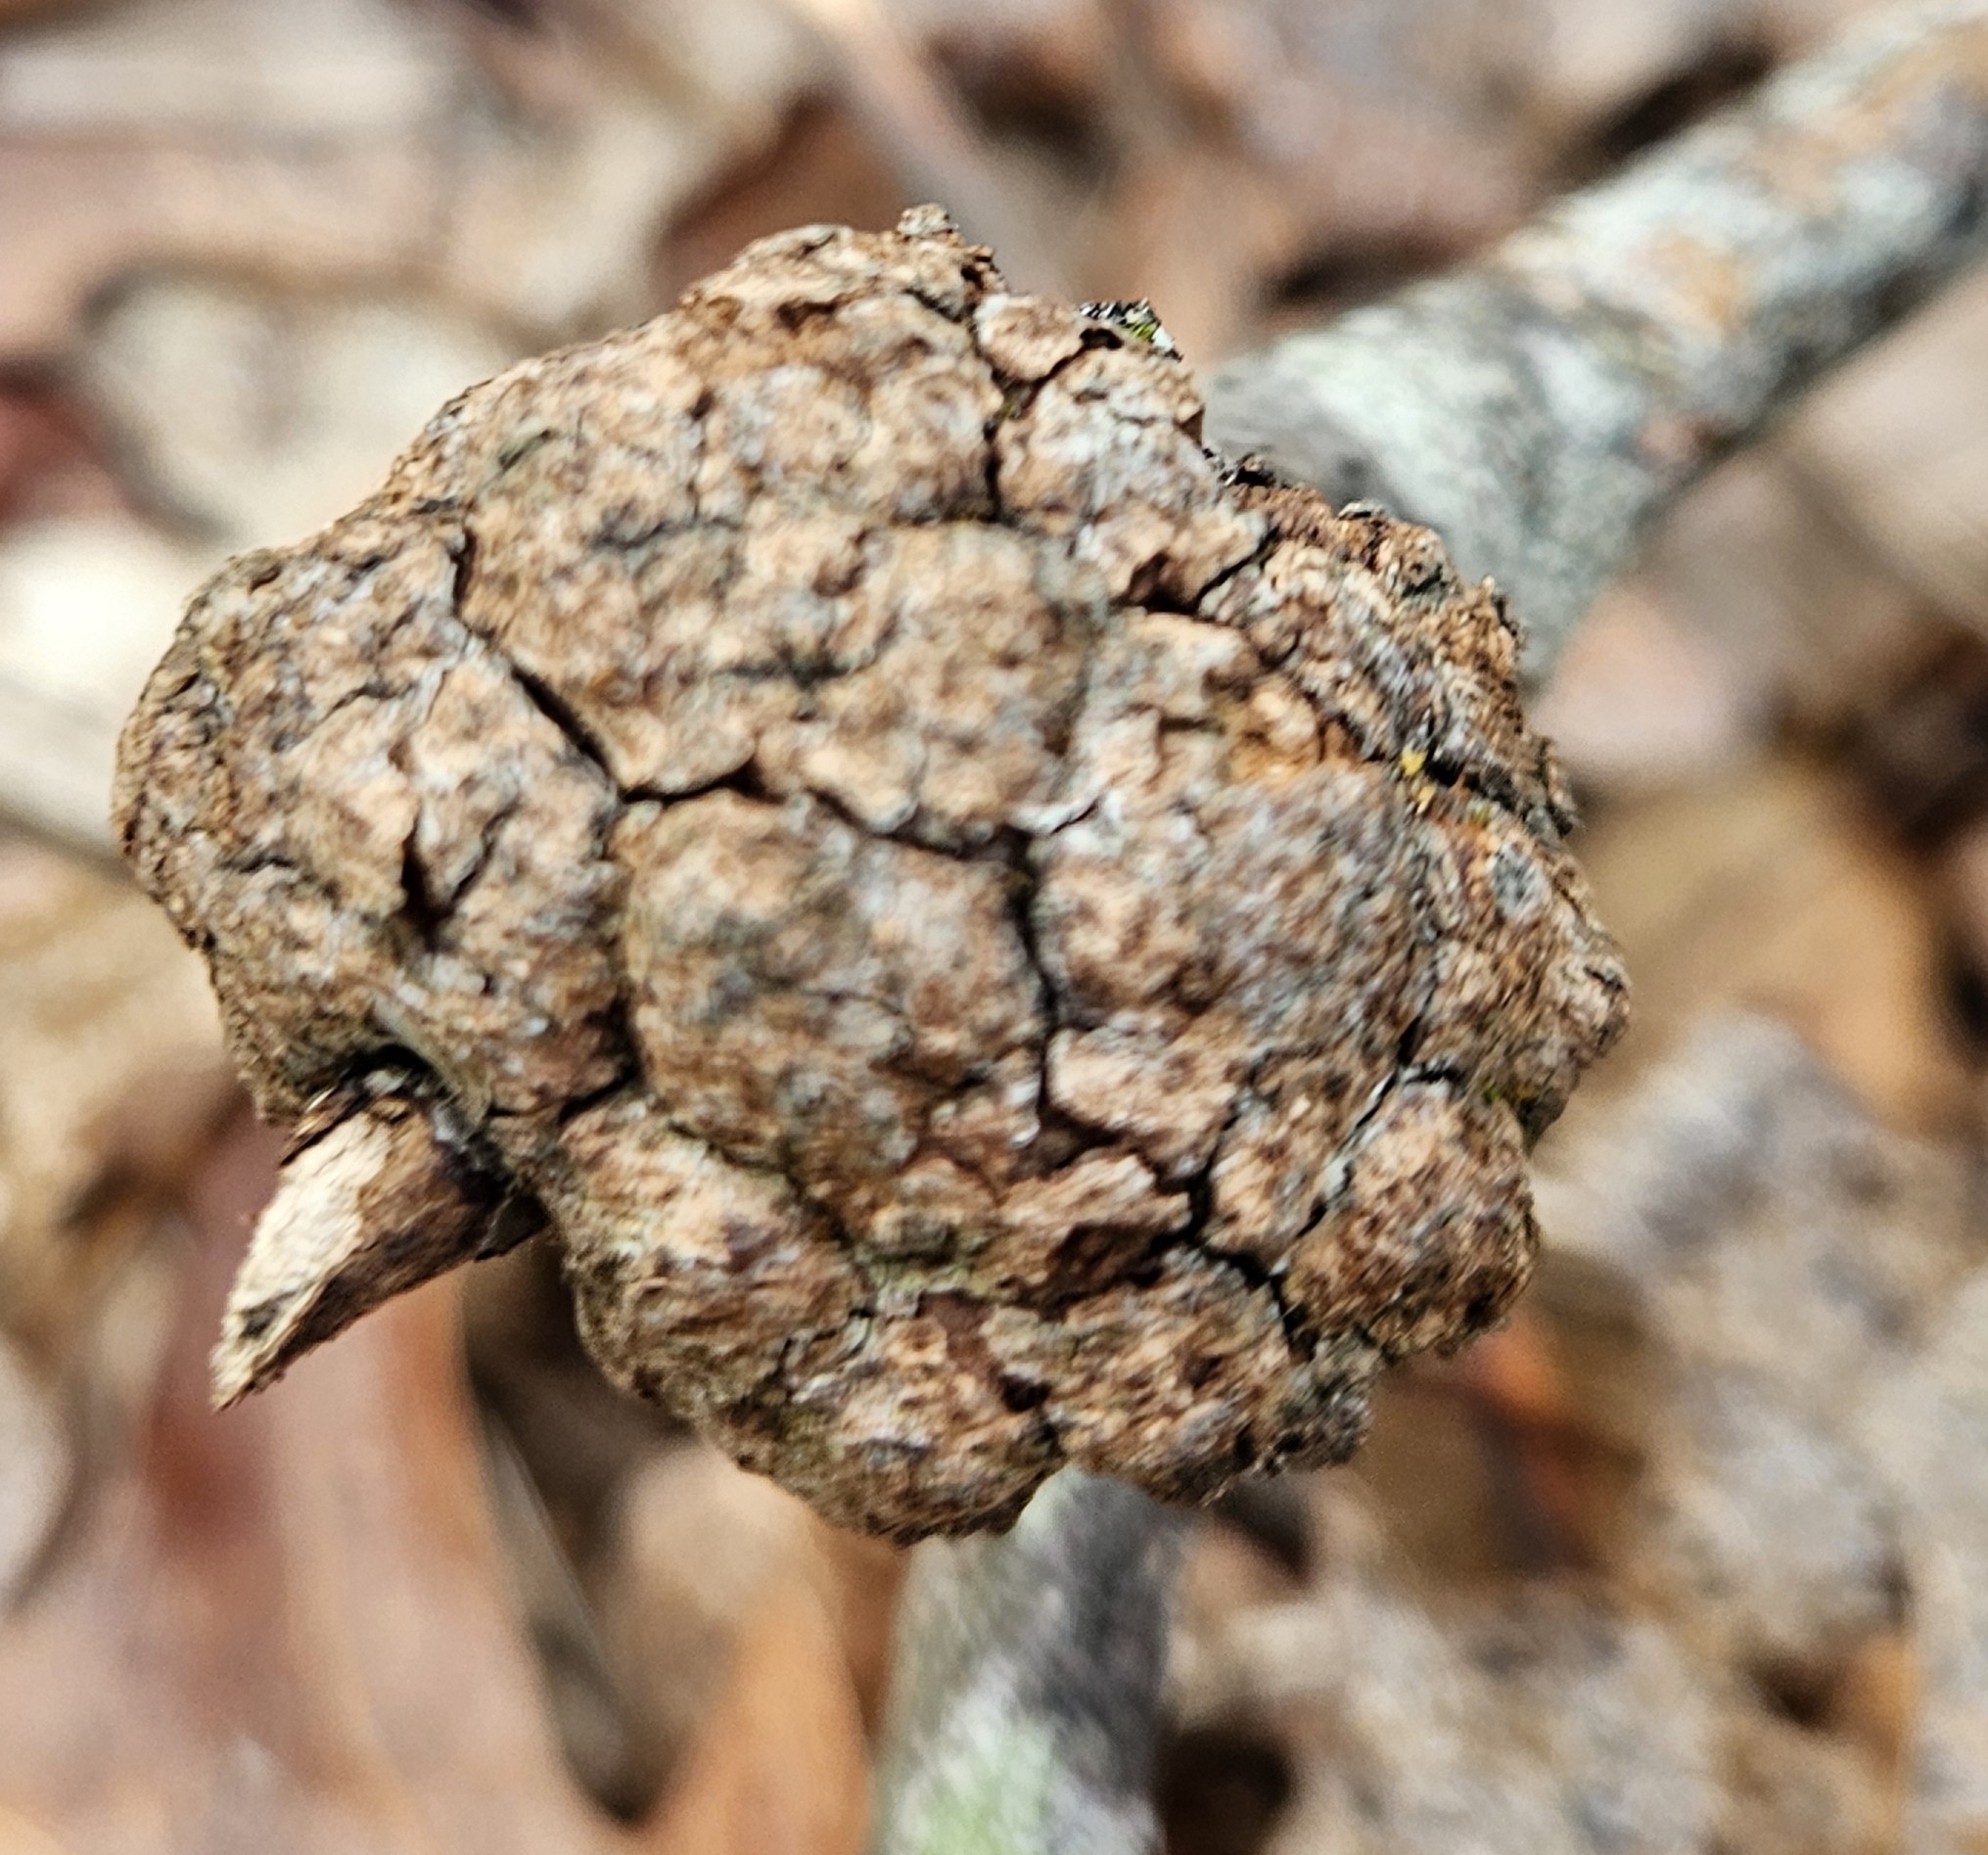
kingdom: Animalia
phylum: Arthropoda
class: Insecta
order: Hymenoptera
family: Cynipidae
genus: Callirhytis
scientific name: Callirhytis
